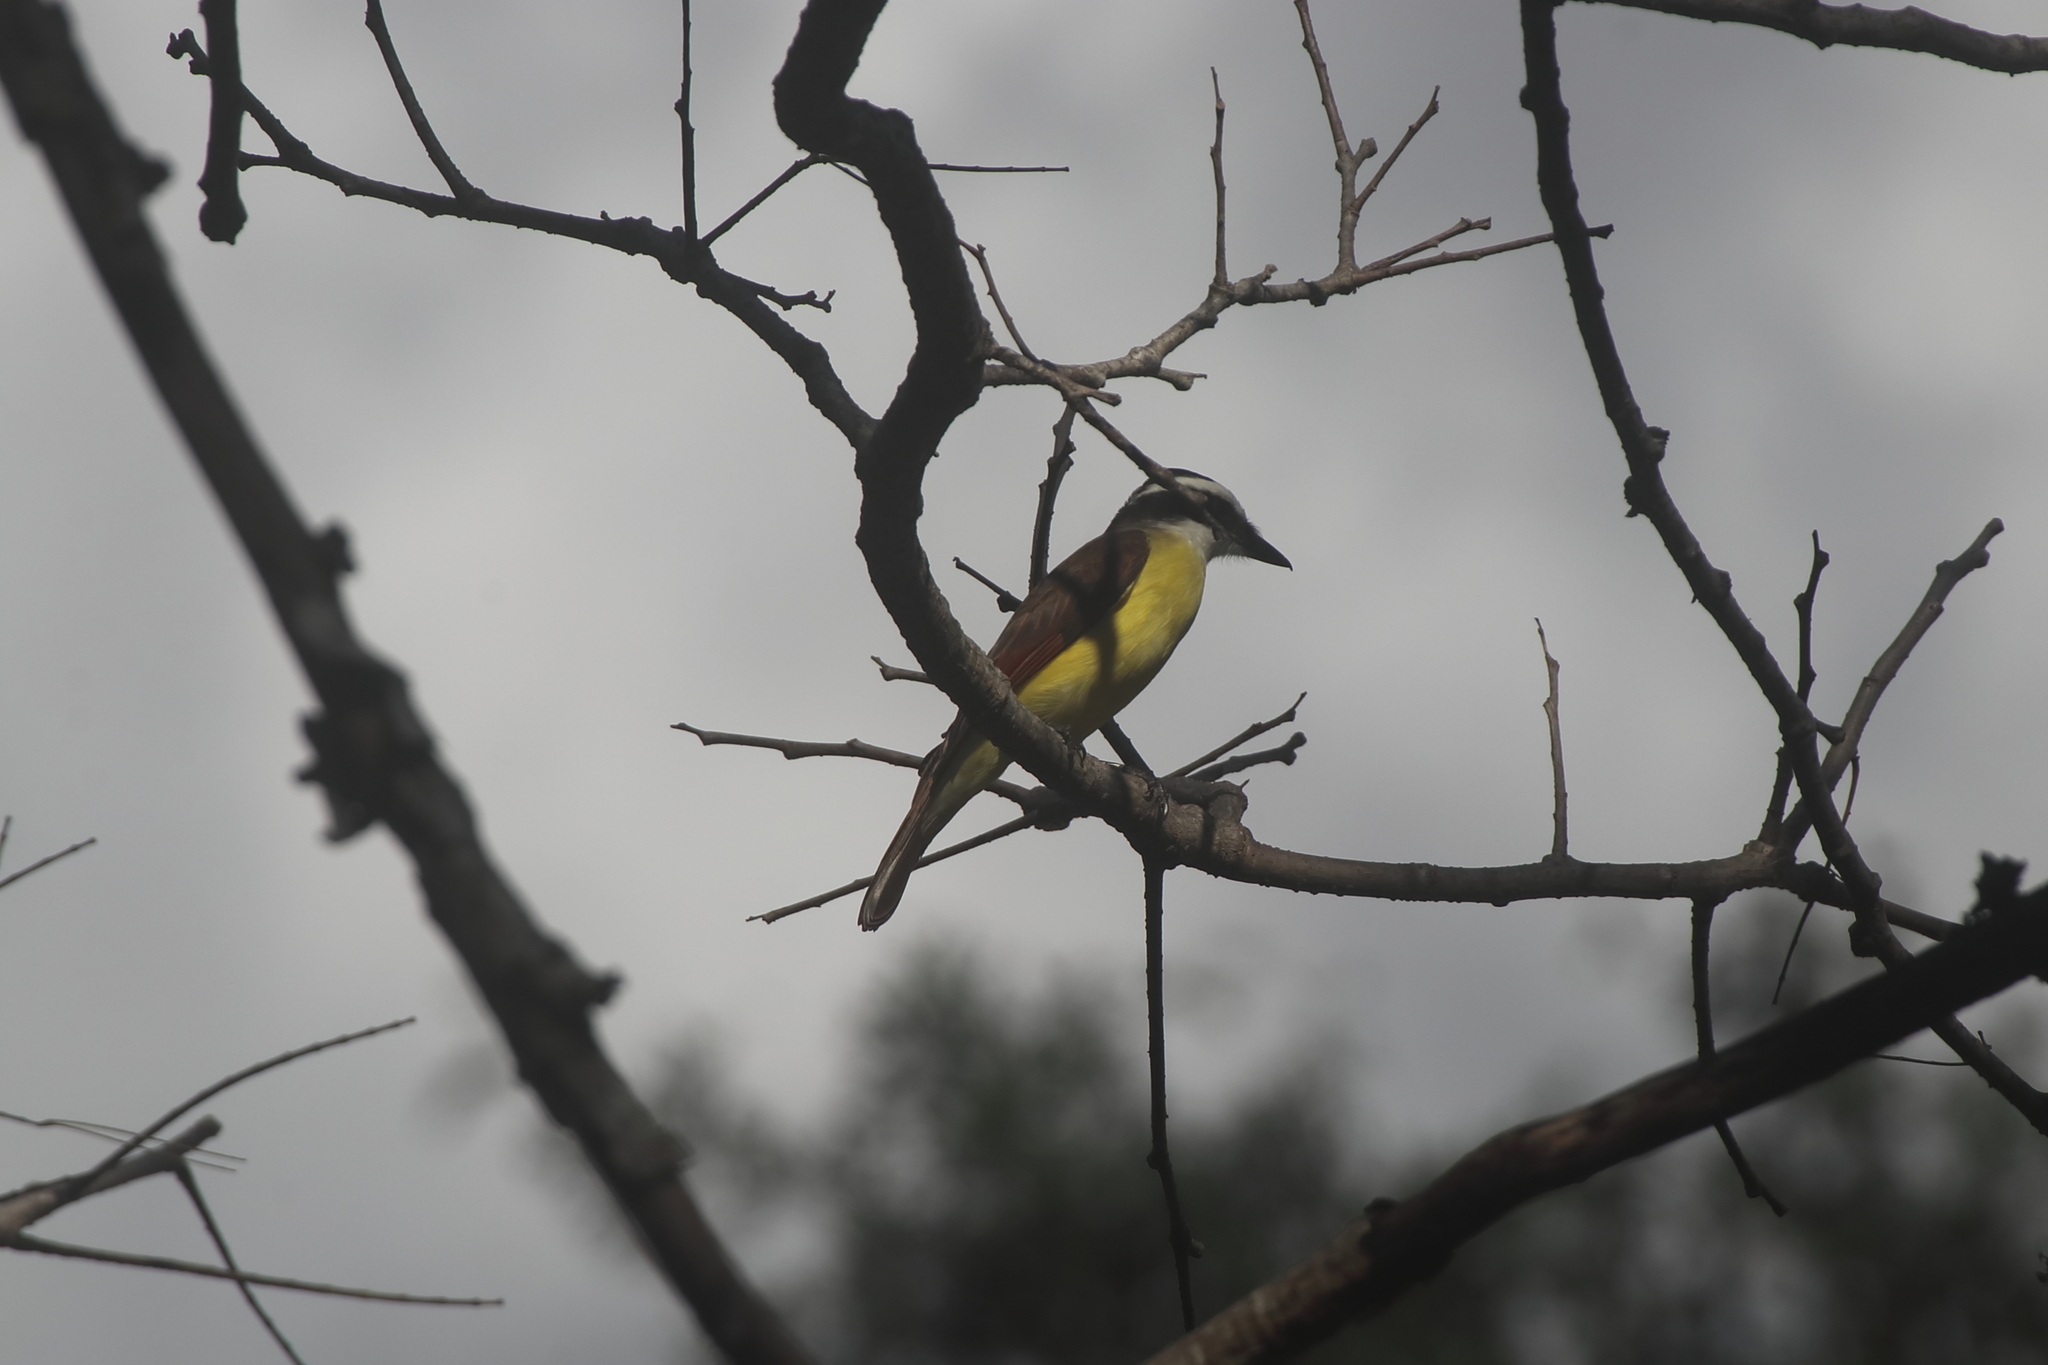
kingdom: Animalia
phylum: Chordata
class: Aves
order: Passeriformes
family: Tyrannidae
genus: Pitangus
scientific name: Pitangus sulphuratus
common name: Great kiskadee
